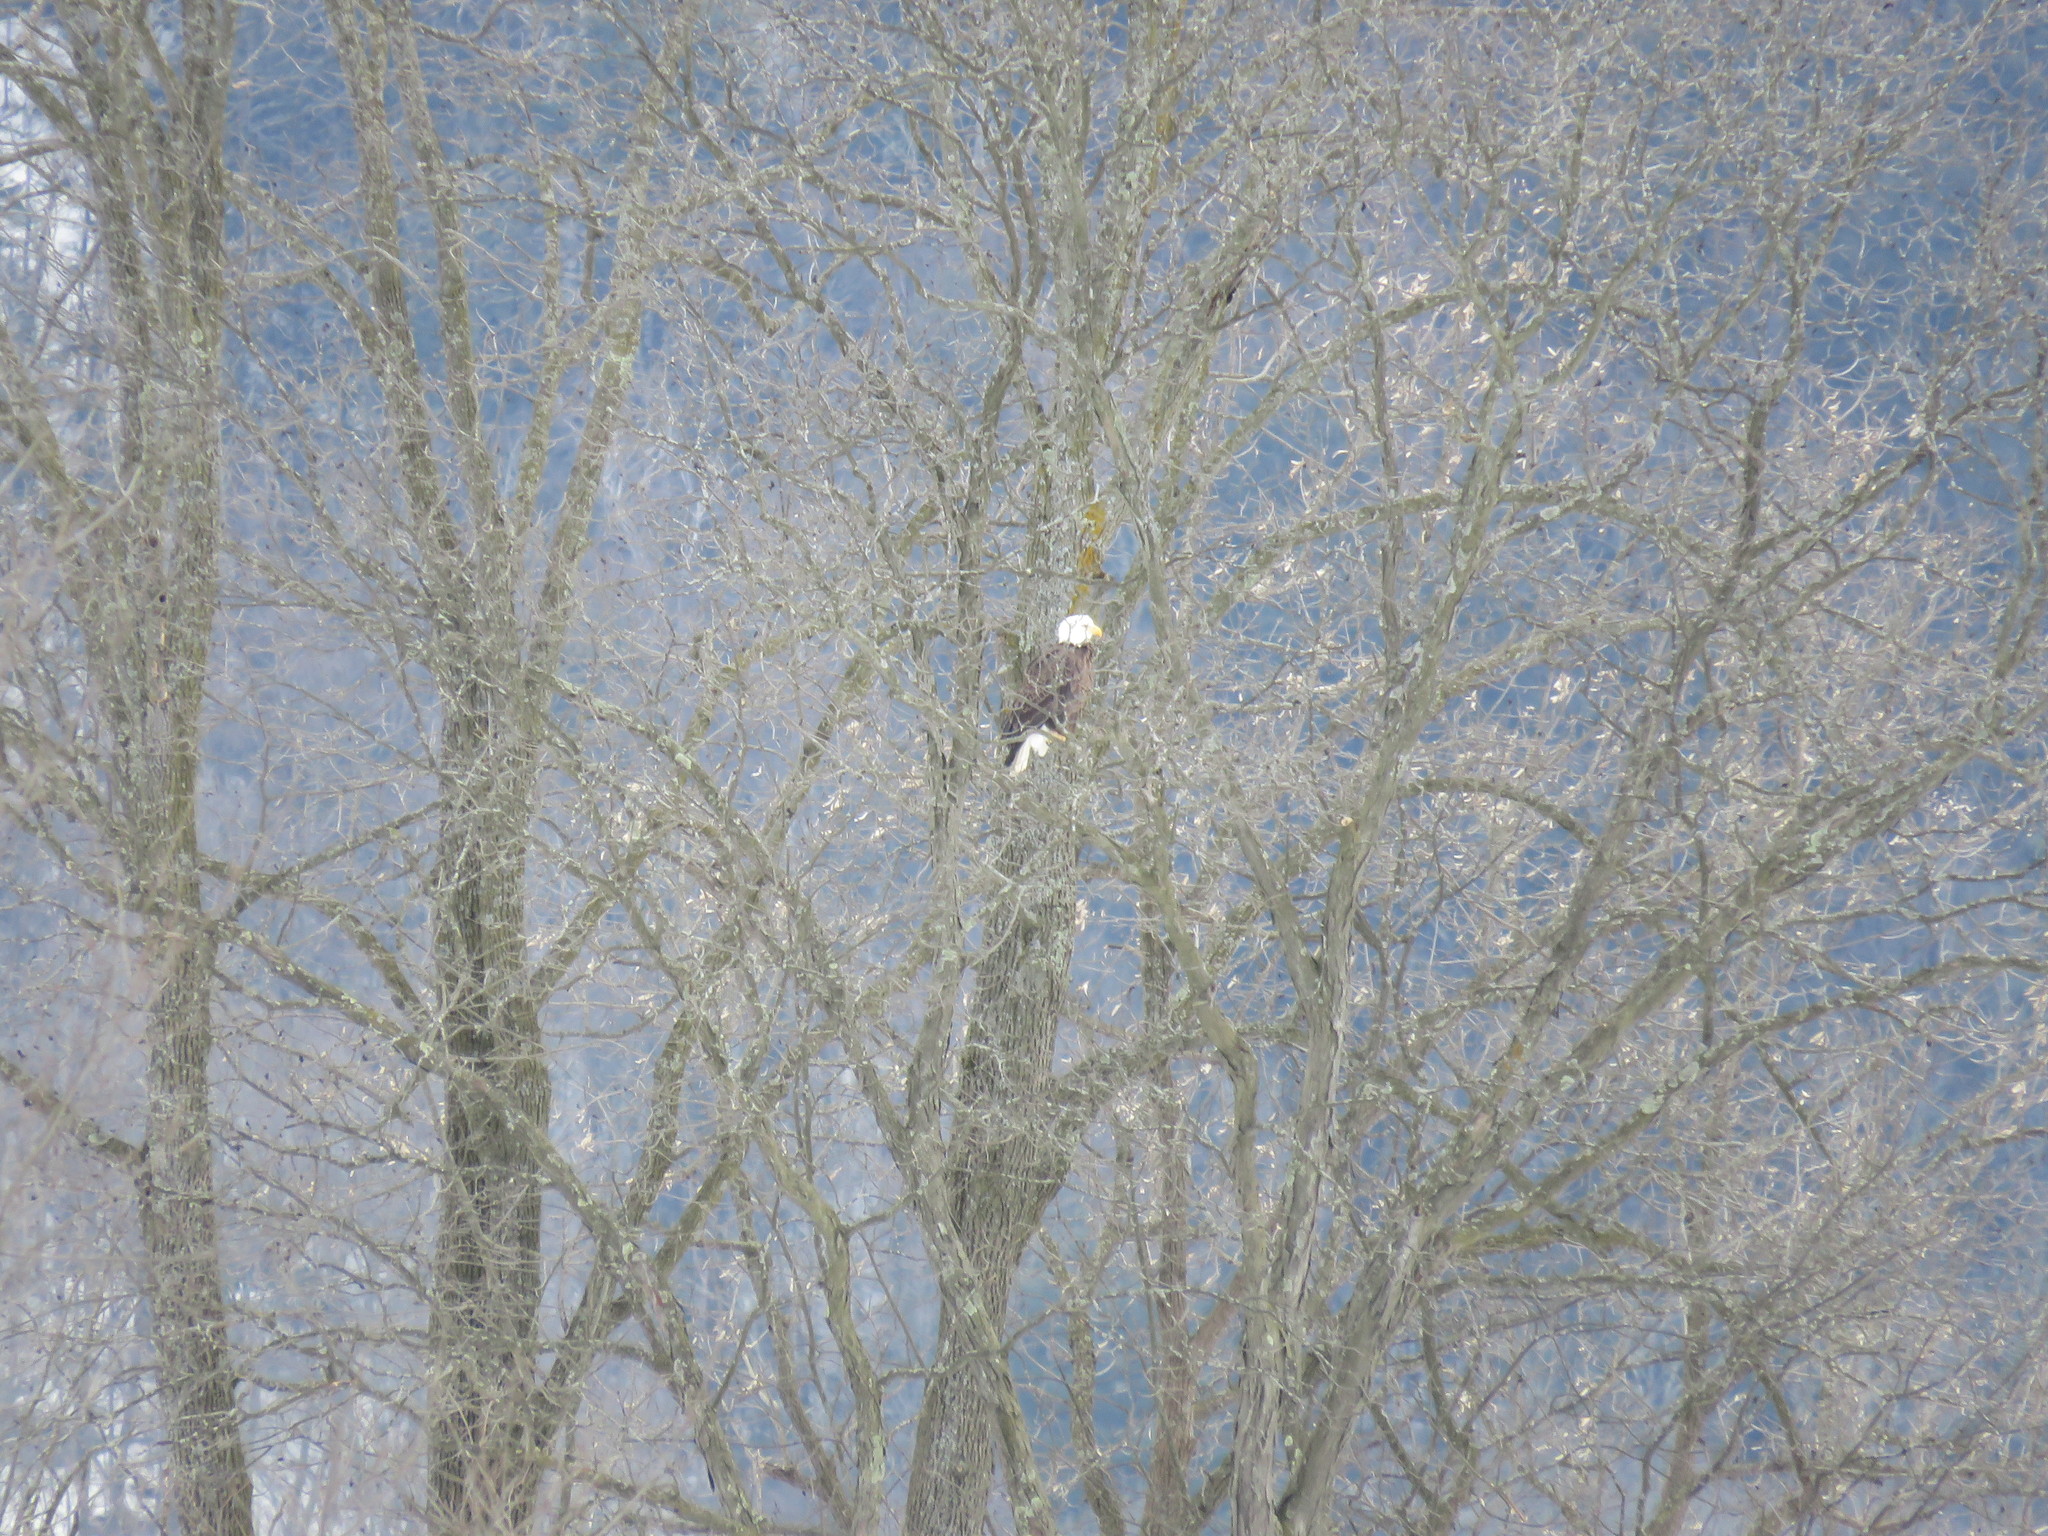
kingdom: Animalia
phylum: Chordata
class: Aves
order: Accipitriformes
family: Accipitridae
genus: Haliaeetus
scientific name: Haliaeetus leucocephalus
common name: Bald eagle
